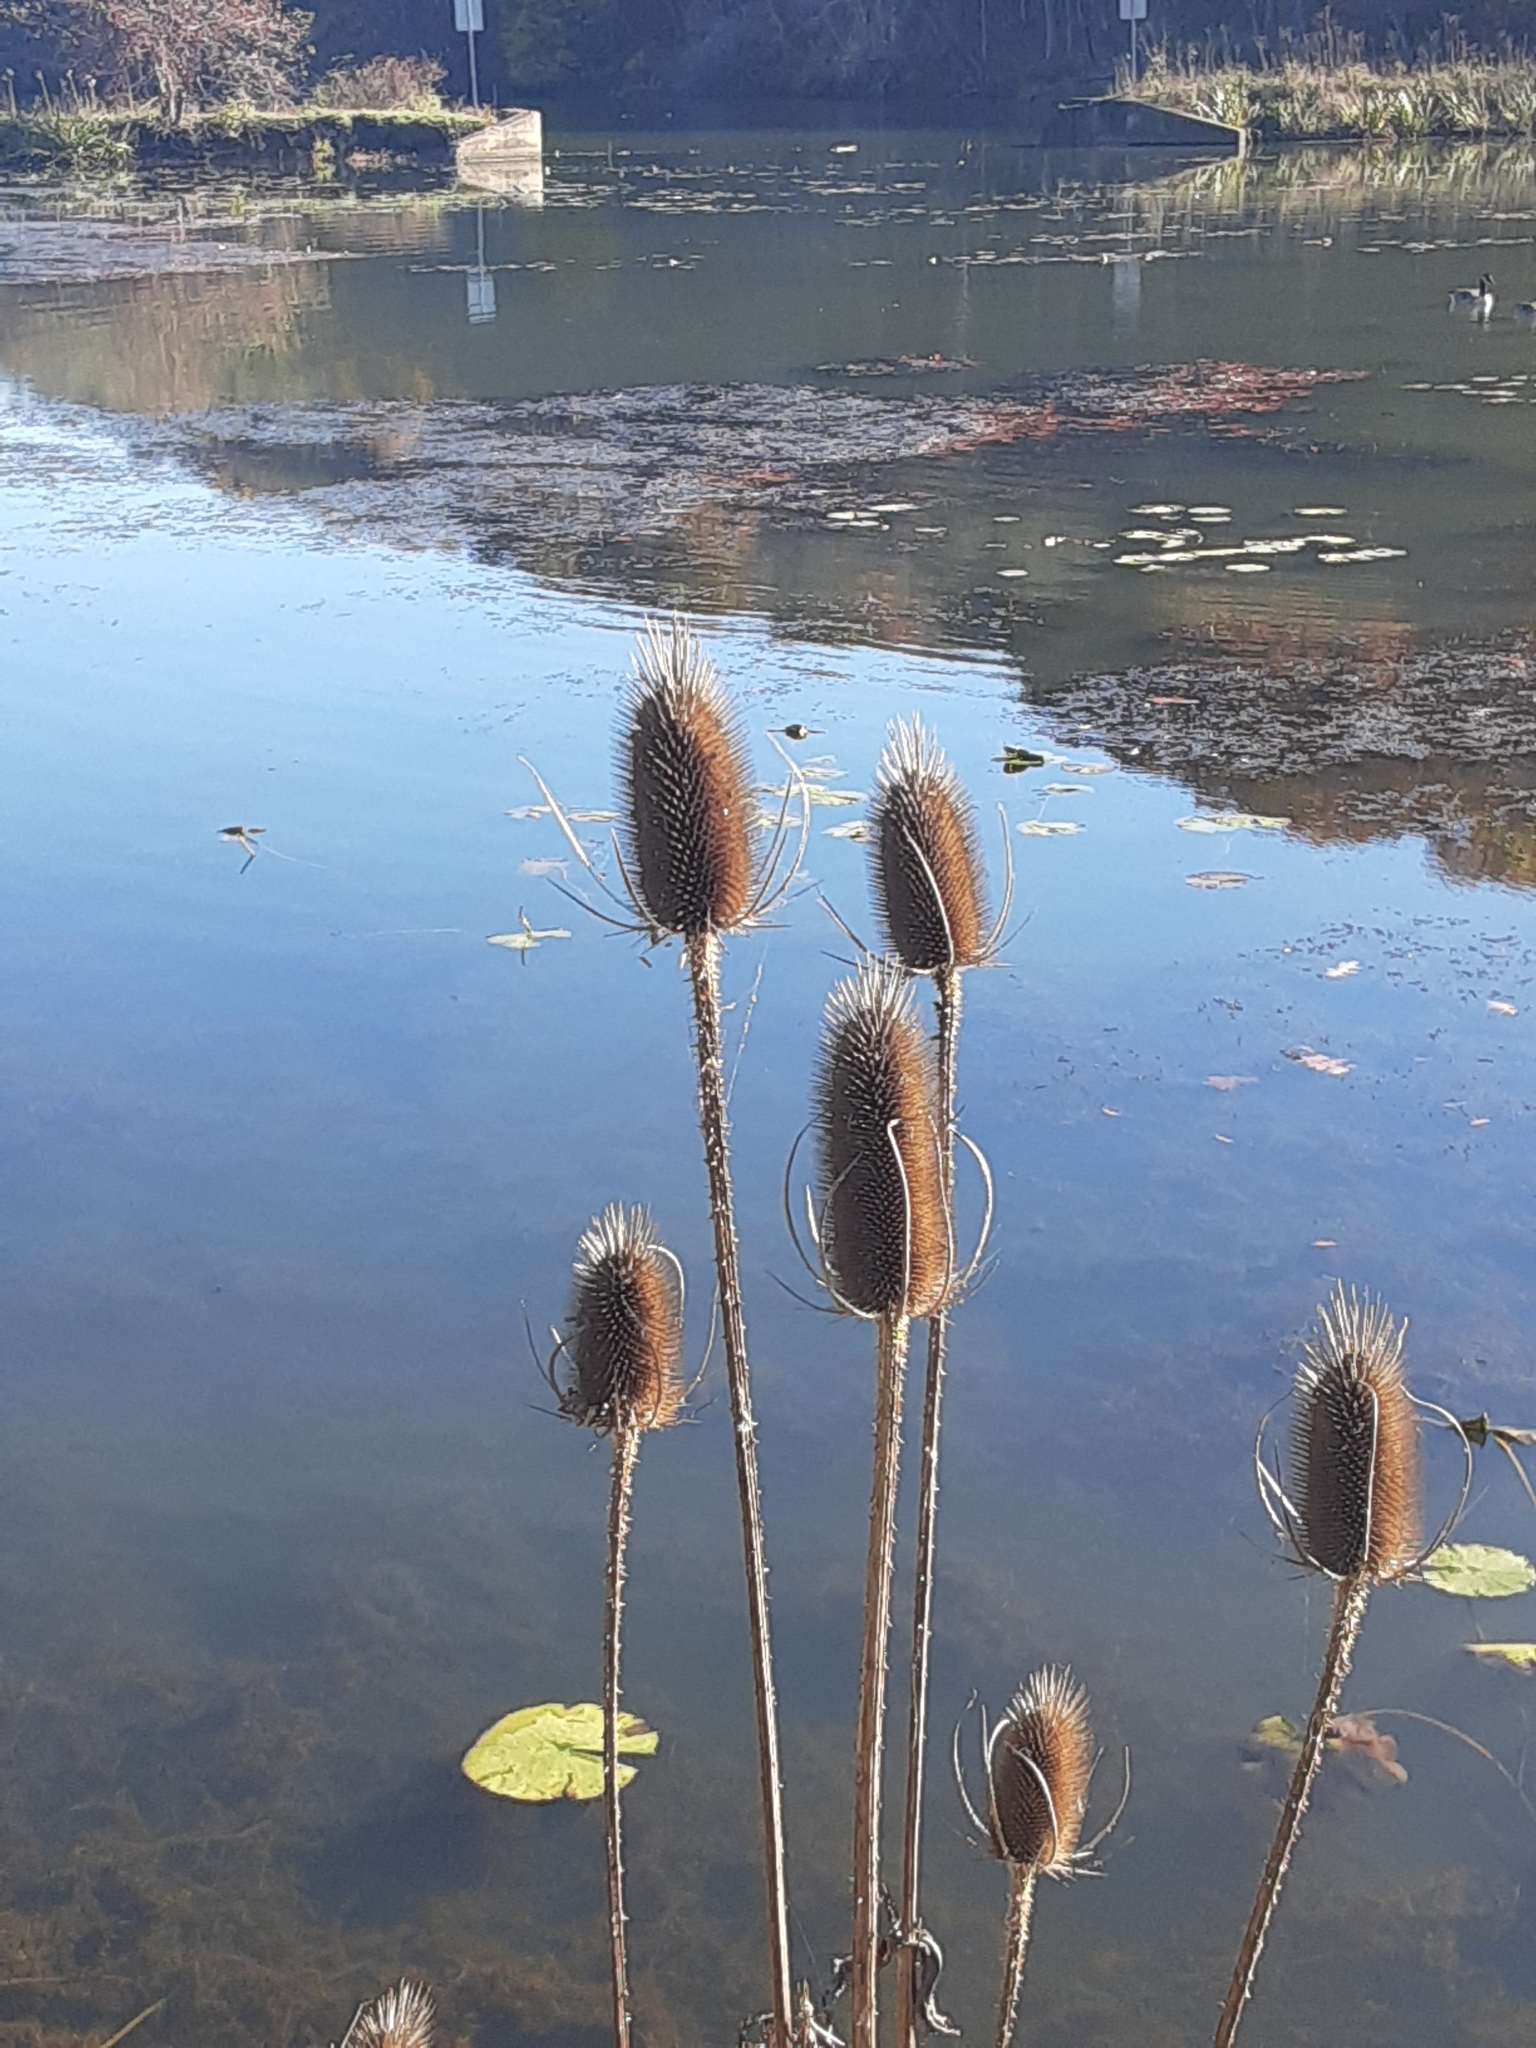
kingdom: Plantae
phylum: Tracheophyta
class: Magnoliopsida
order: Dipsacales
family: Caprifoliaceae
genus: Dipsacus
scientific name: Dipsacus fullonum
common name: Teasel
